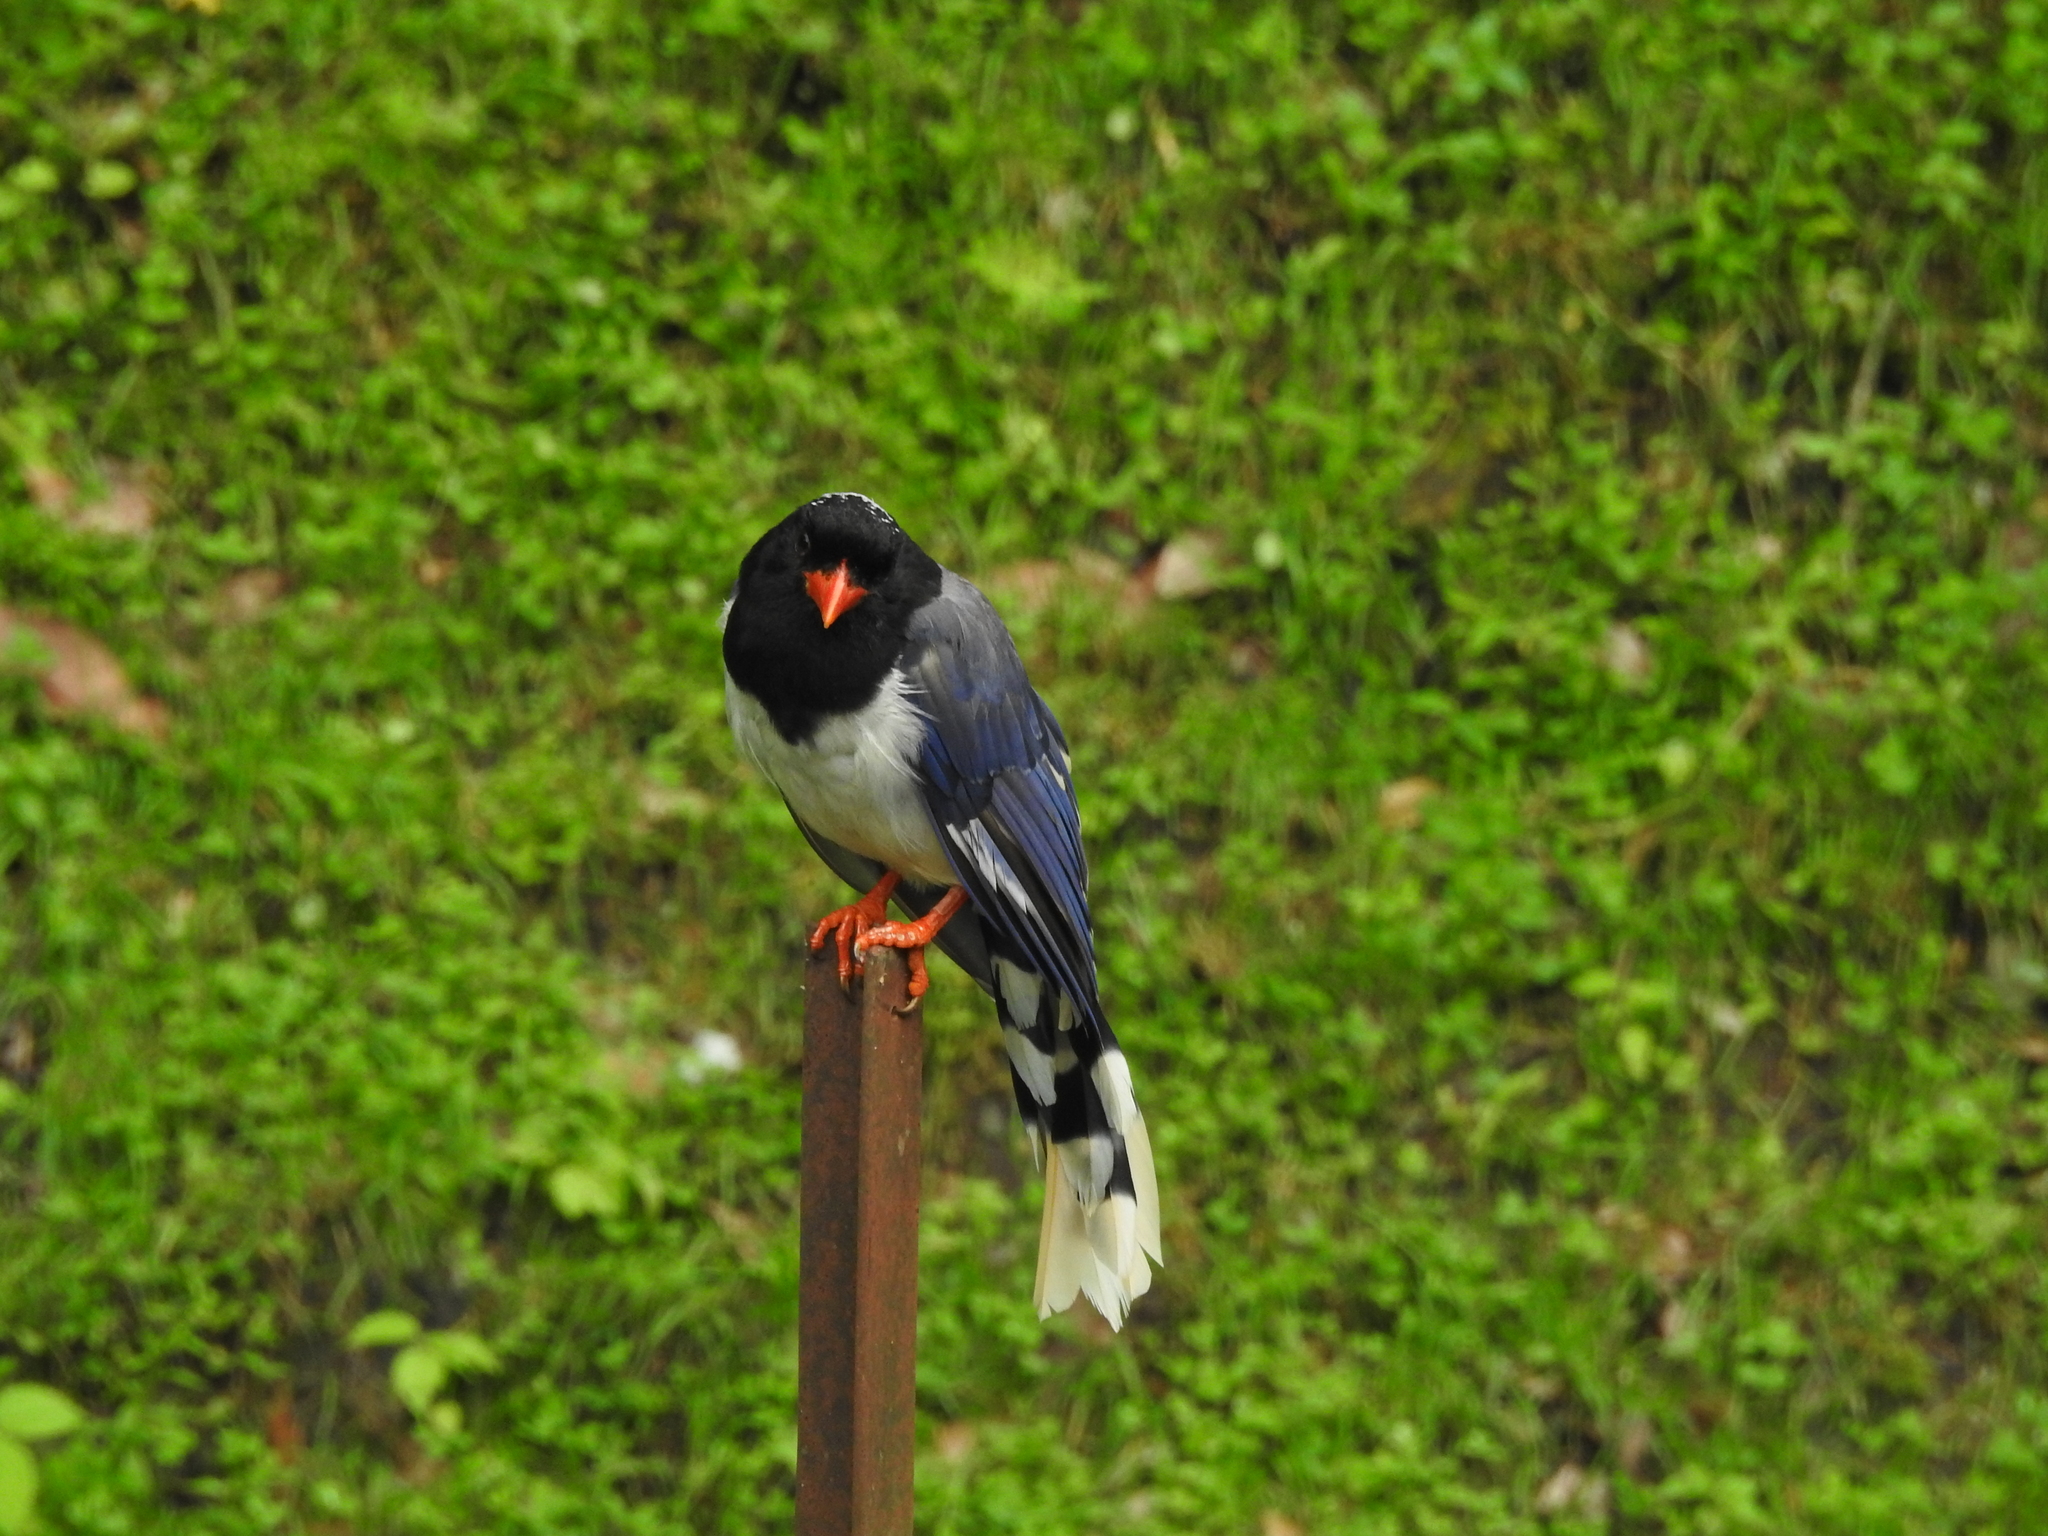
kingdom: Animalia
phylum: Chordata
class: Aves
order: Passeriformes
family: Corvidae
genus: Urocissa
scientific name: Urocissa erythroryncha
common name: Red-billed blue magpie
